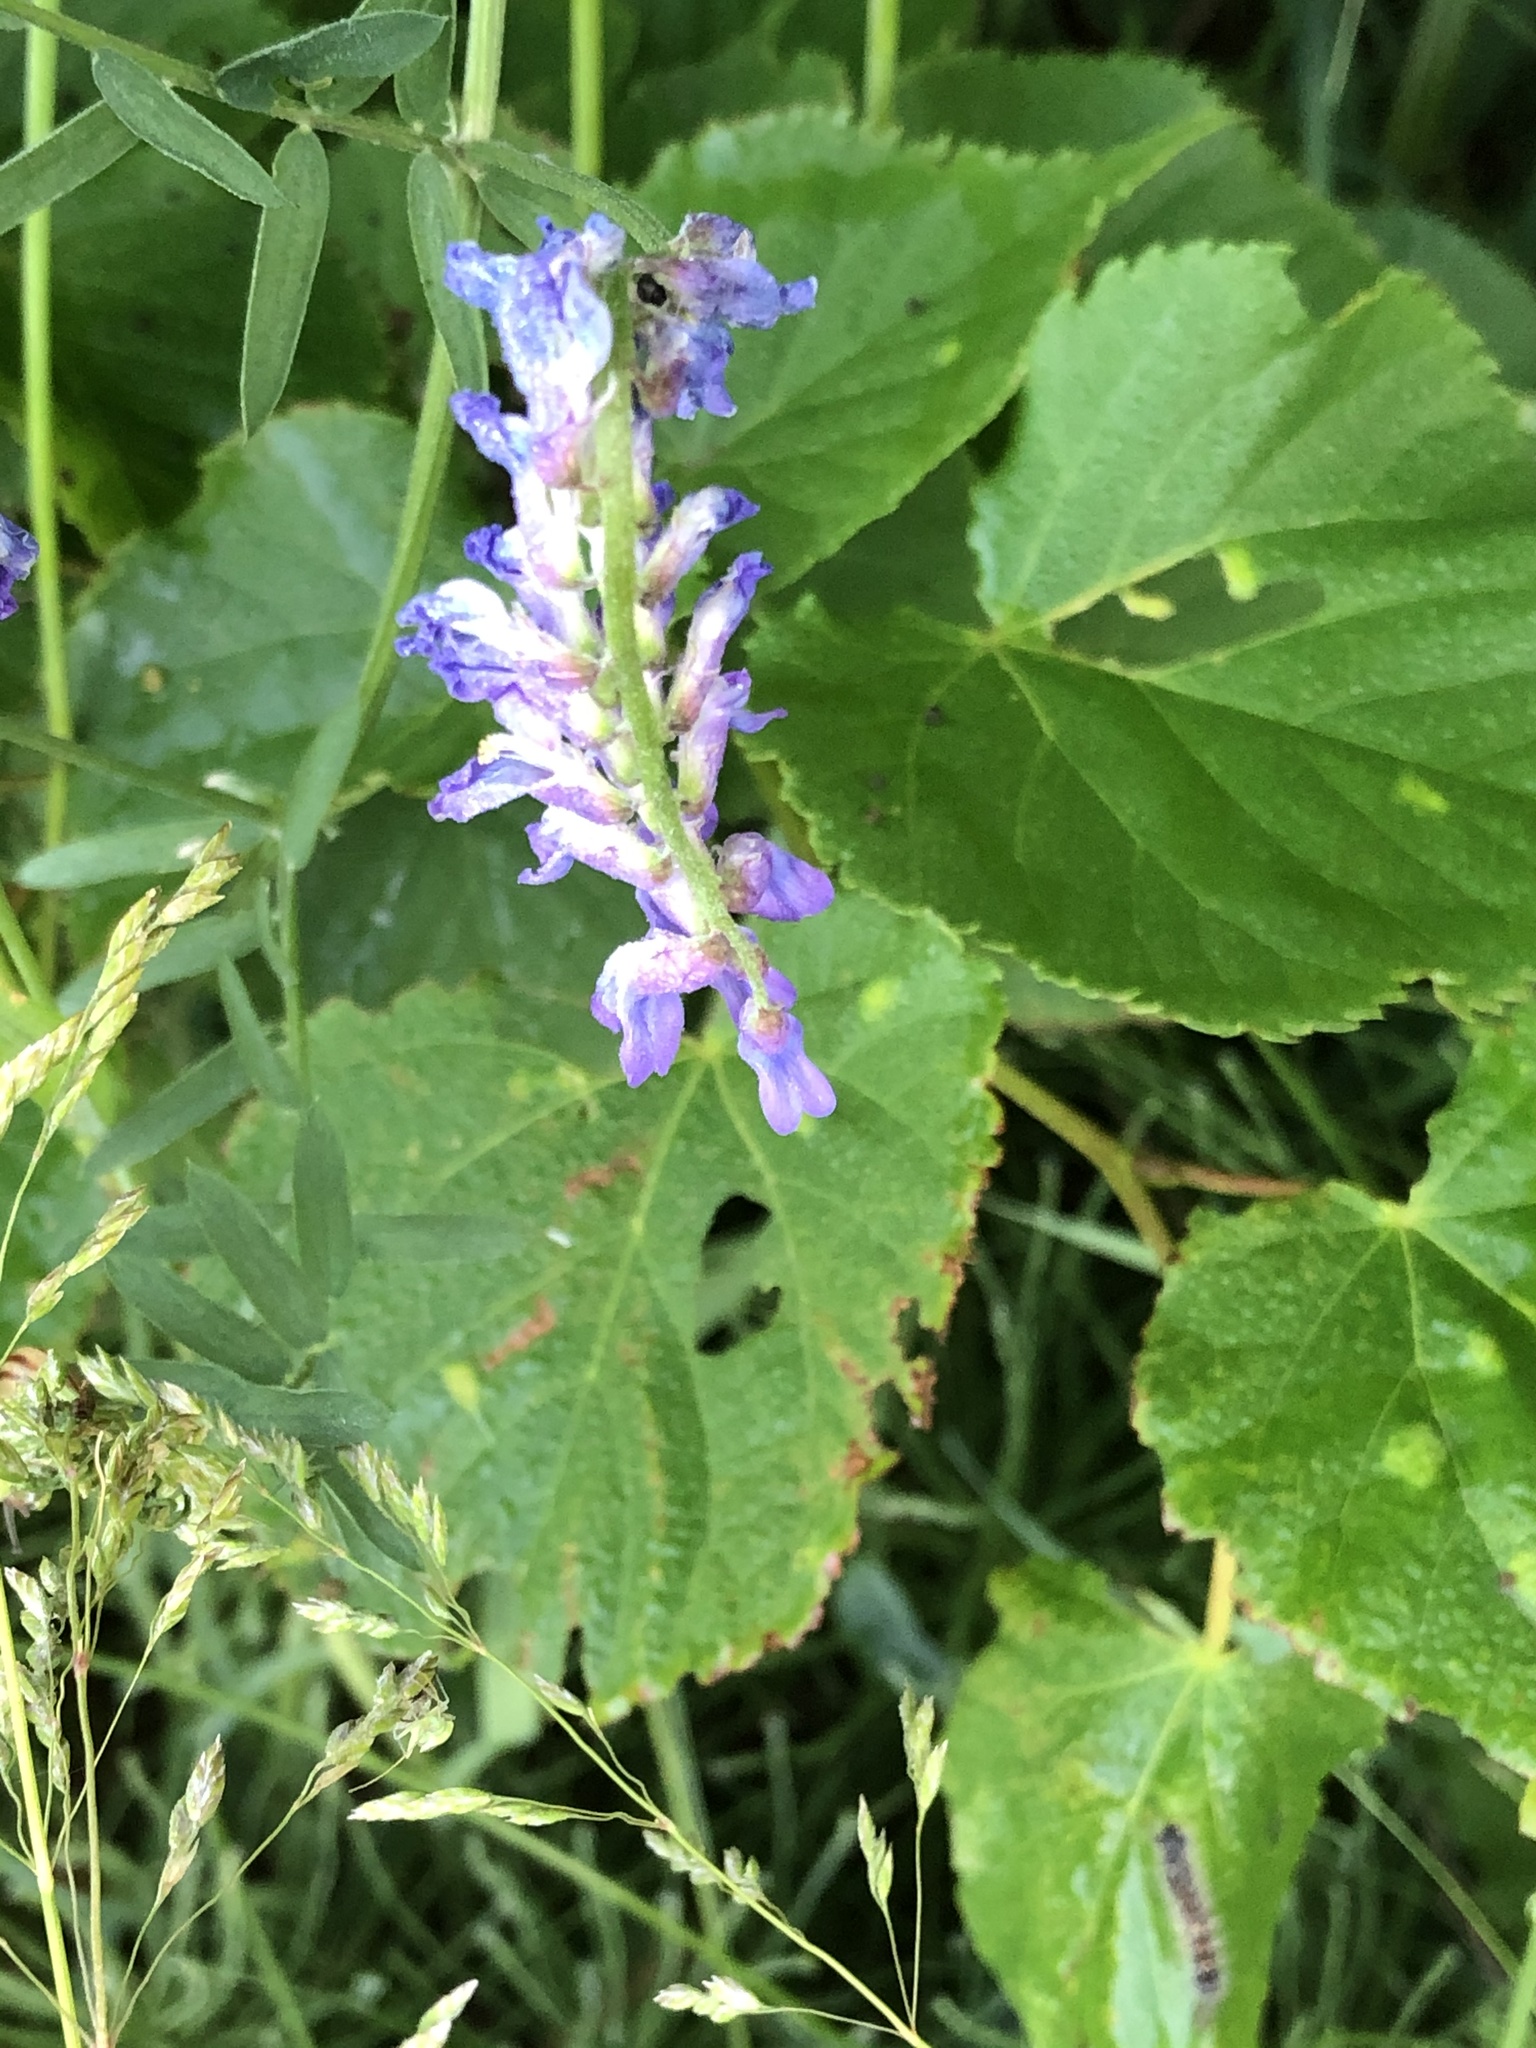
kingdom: Plantae
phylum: Tracheophyta
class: Magnoliopsida
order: Fabales
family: Fabaceae
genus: Vicia
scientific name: Vicia cracca
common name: Bird vetch
